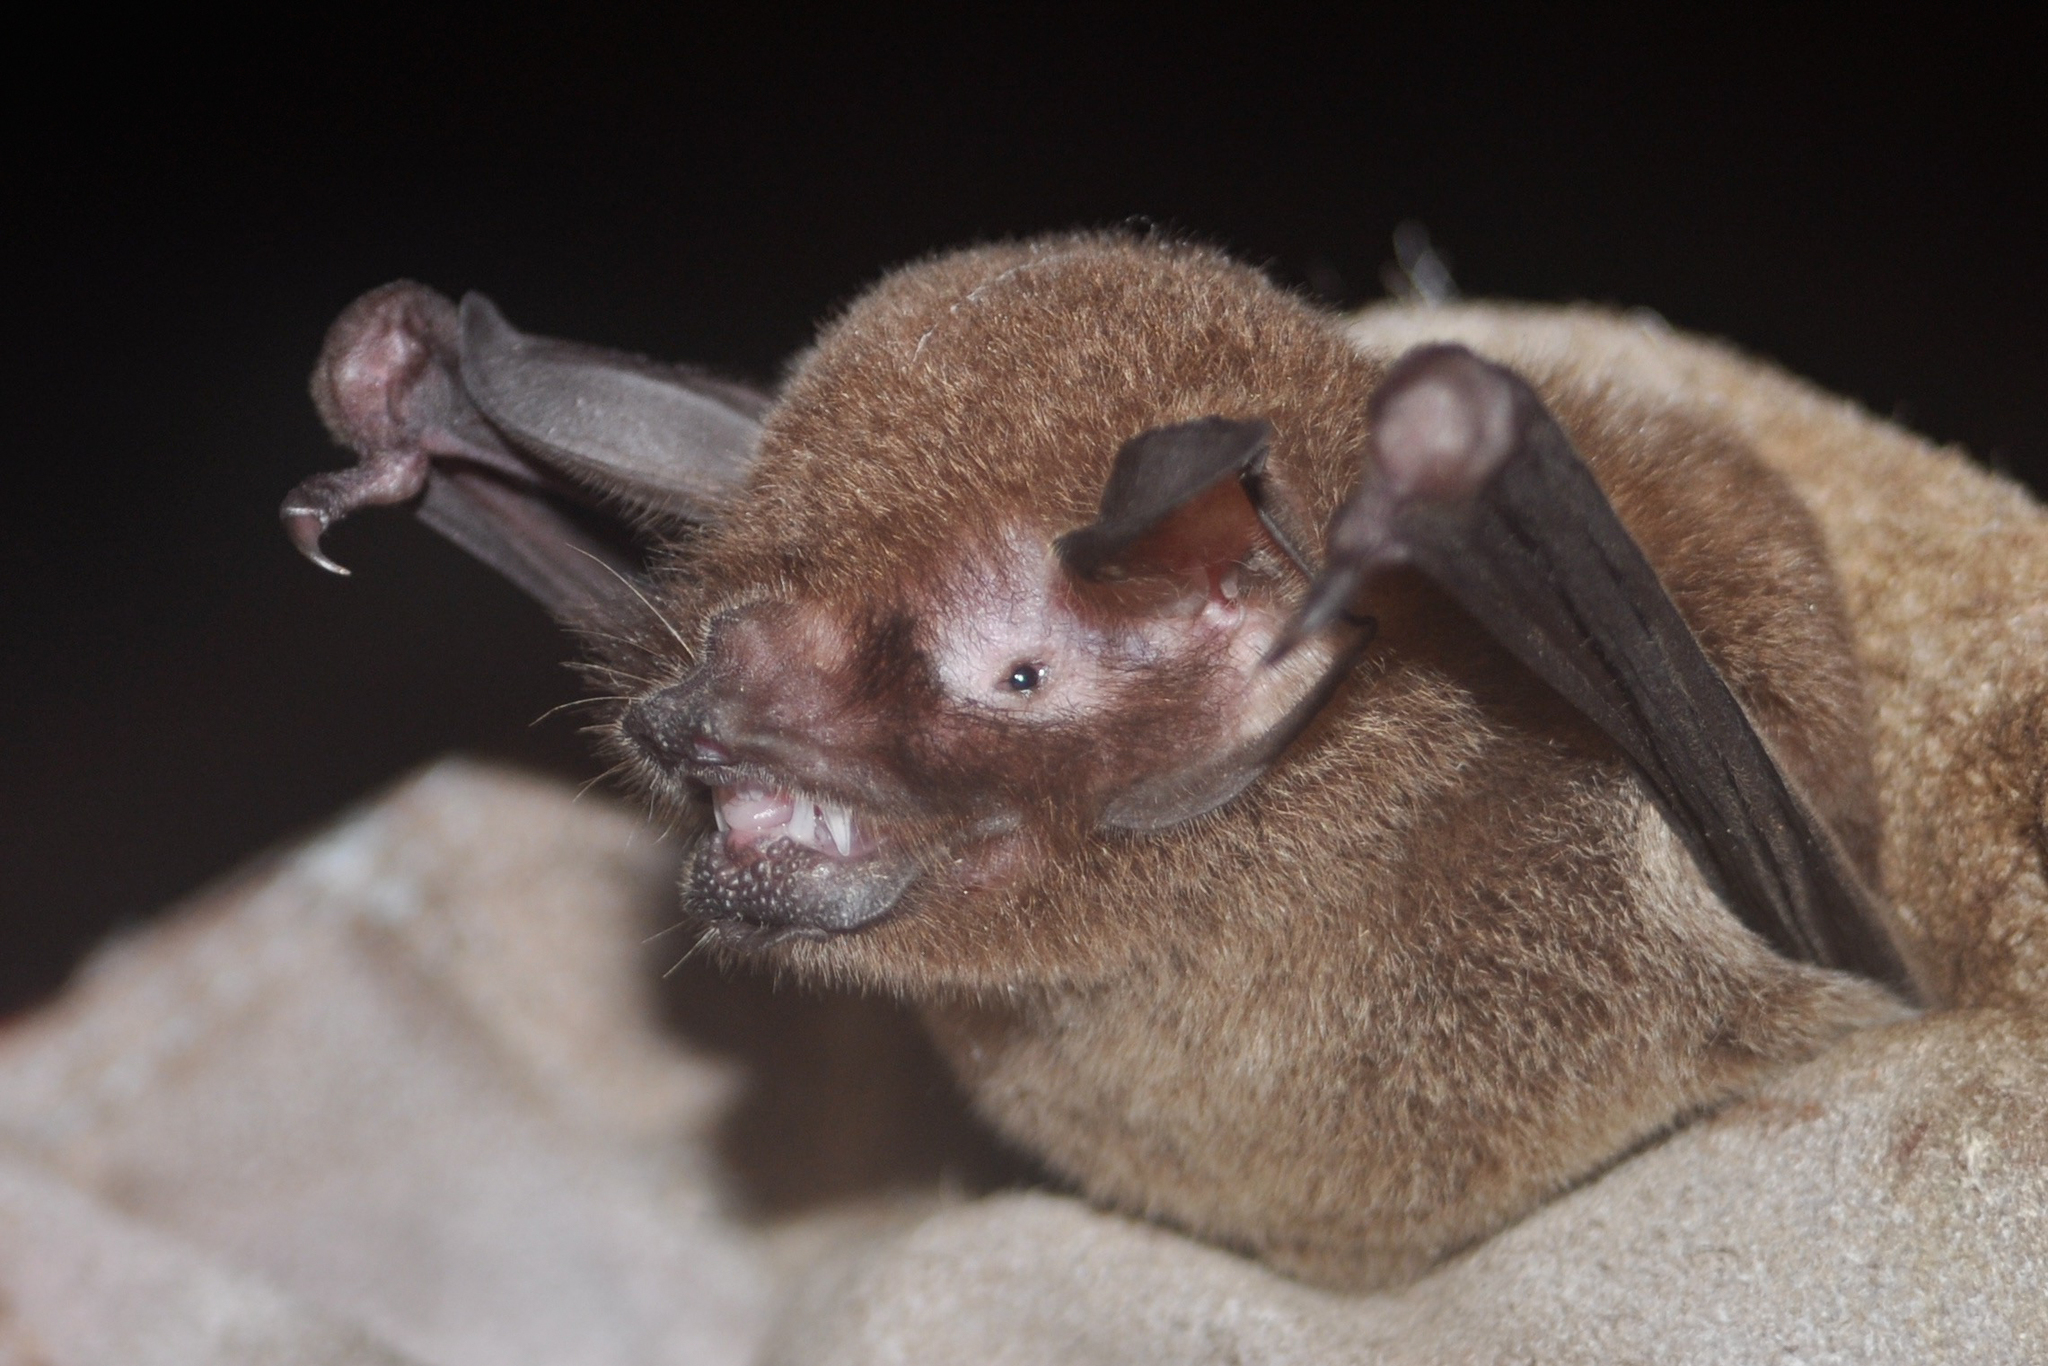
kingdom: Animalia
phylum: Chordata
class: Mammalia
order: Chiroptera
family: Mormoopidae
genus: Pteronotus
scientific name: Pteronotus parnellii
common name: Common mustached bat
